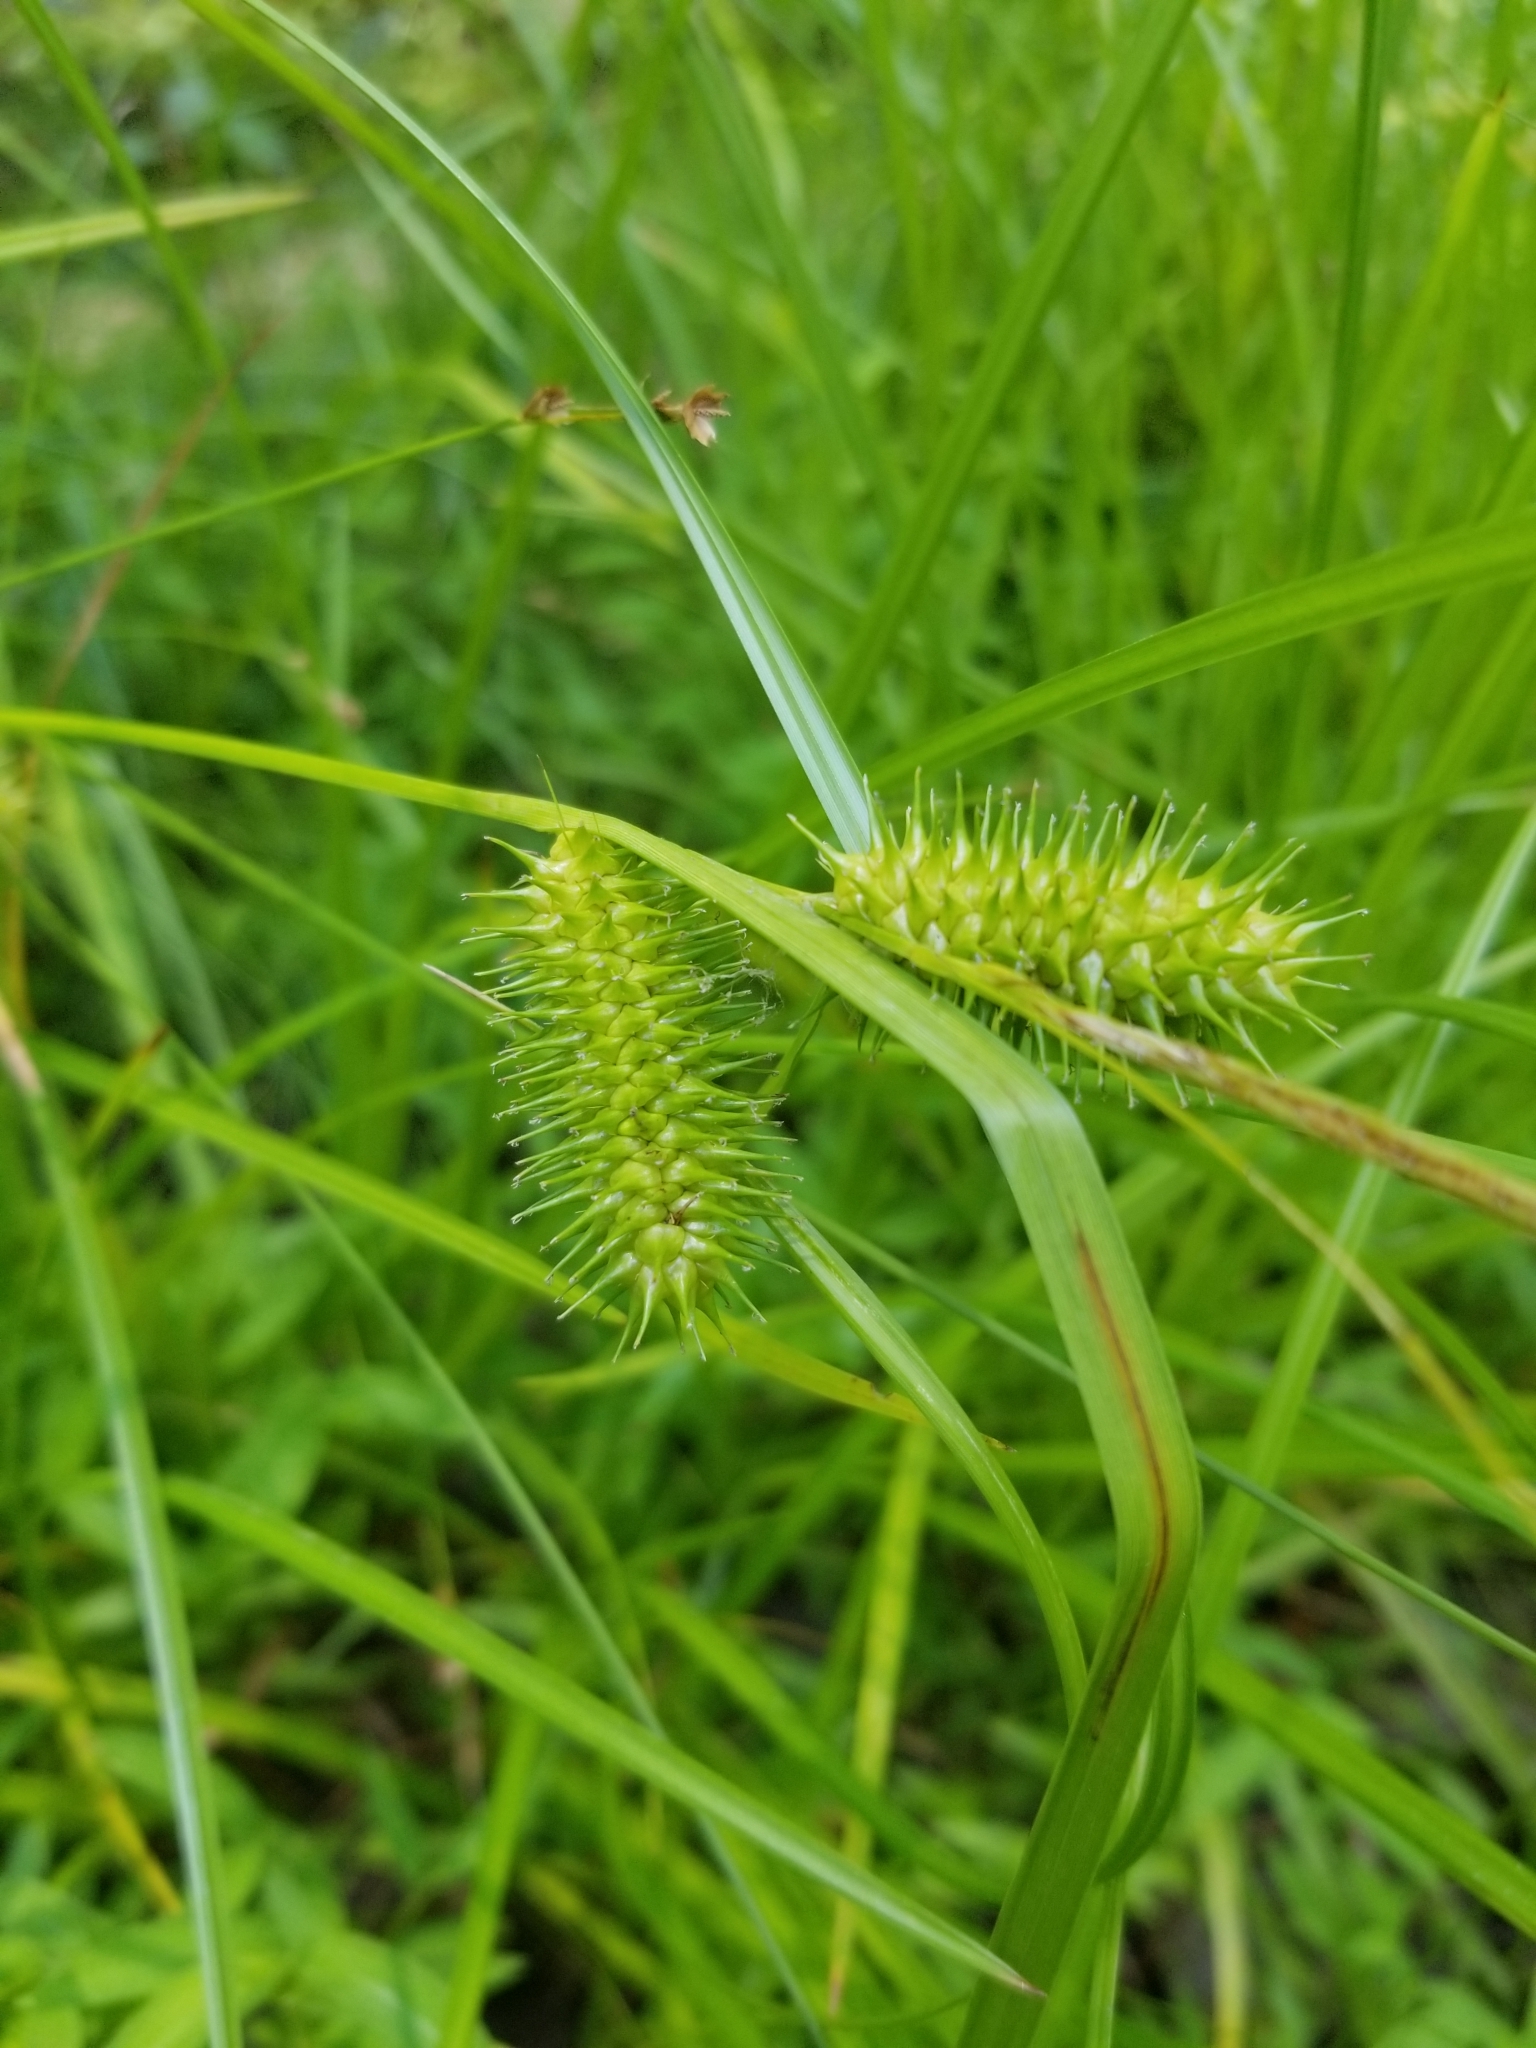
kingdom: Plantae
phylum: Tracheophyta
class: Liliopsida
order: Poales
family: Cyperaceae
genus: Carex
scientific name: Carex lurida
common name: Sallow sedge
